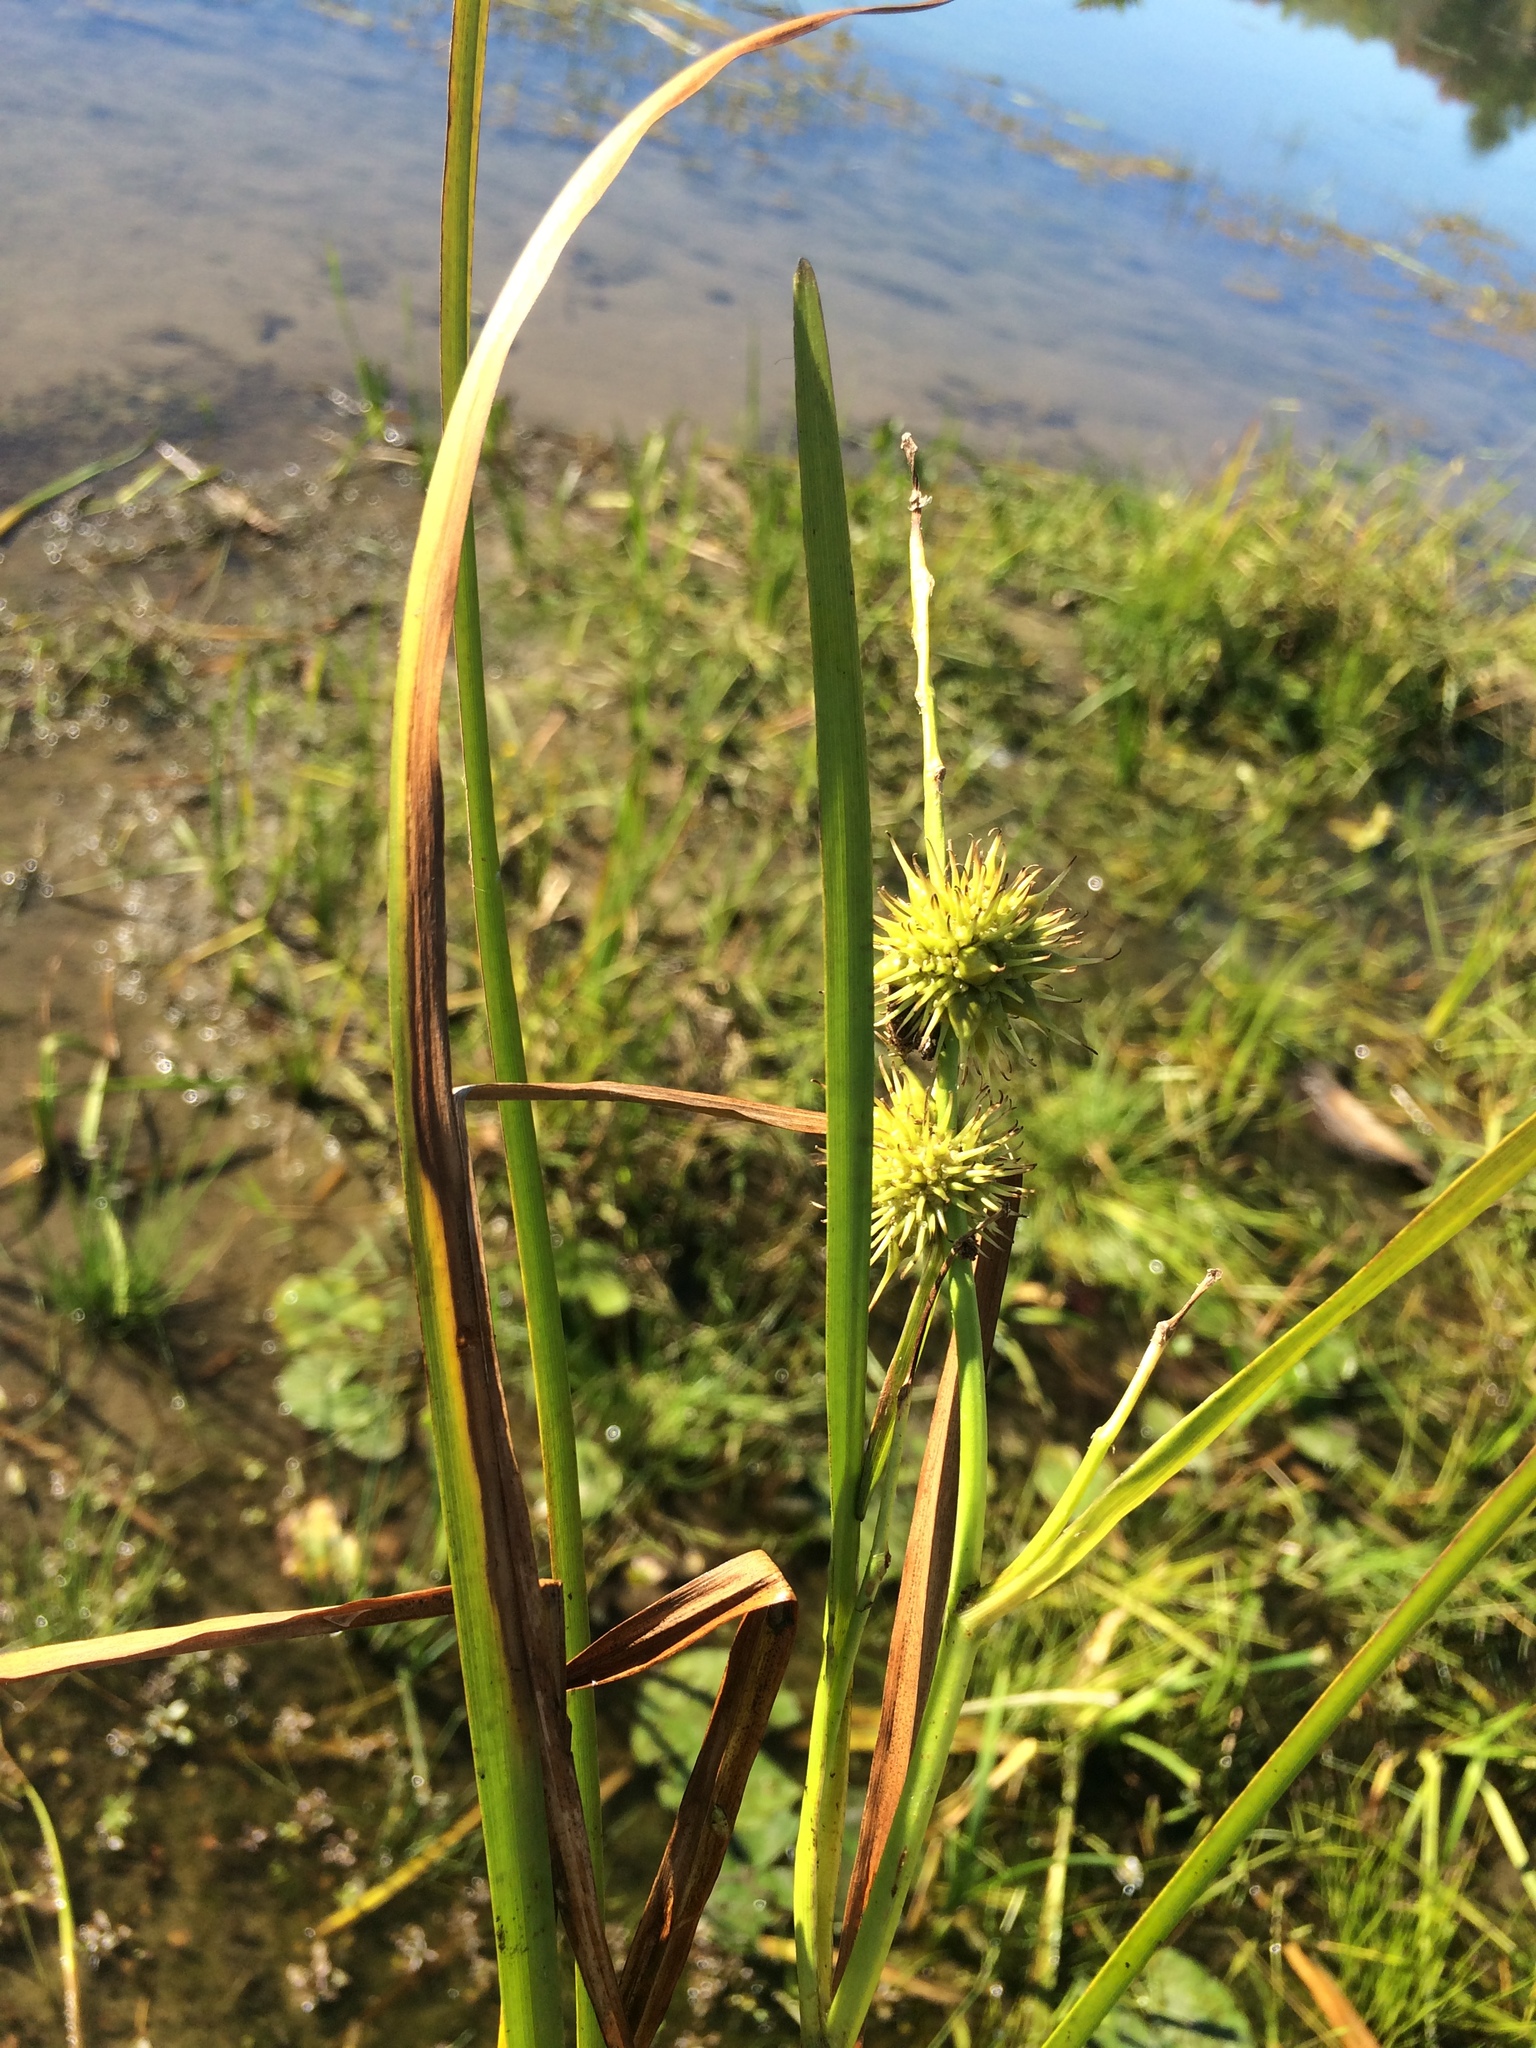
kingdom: Plantae
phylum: Tracheophyta
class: Liliopsida
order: Poales
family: Typhaceae
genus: Sparganium
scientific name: Sparganium androcladum
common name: Branched burreed
